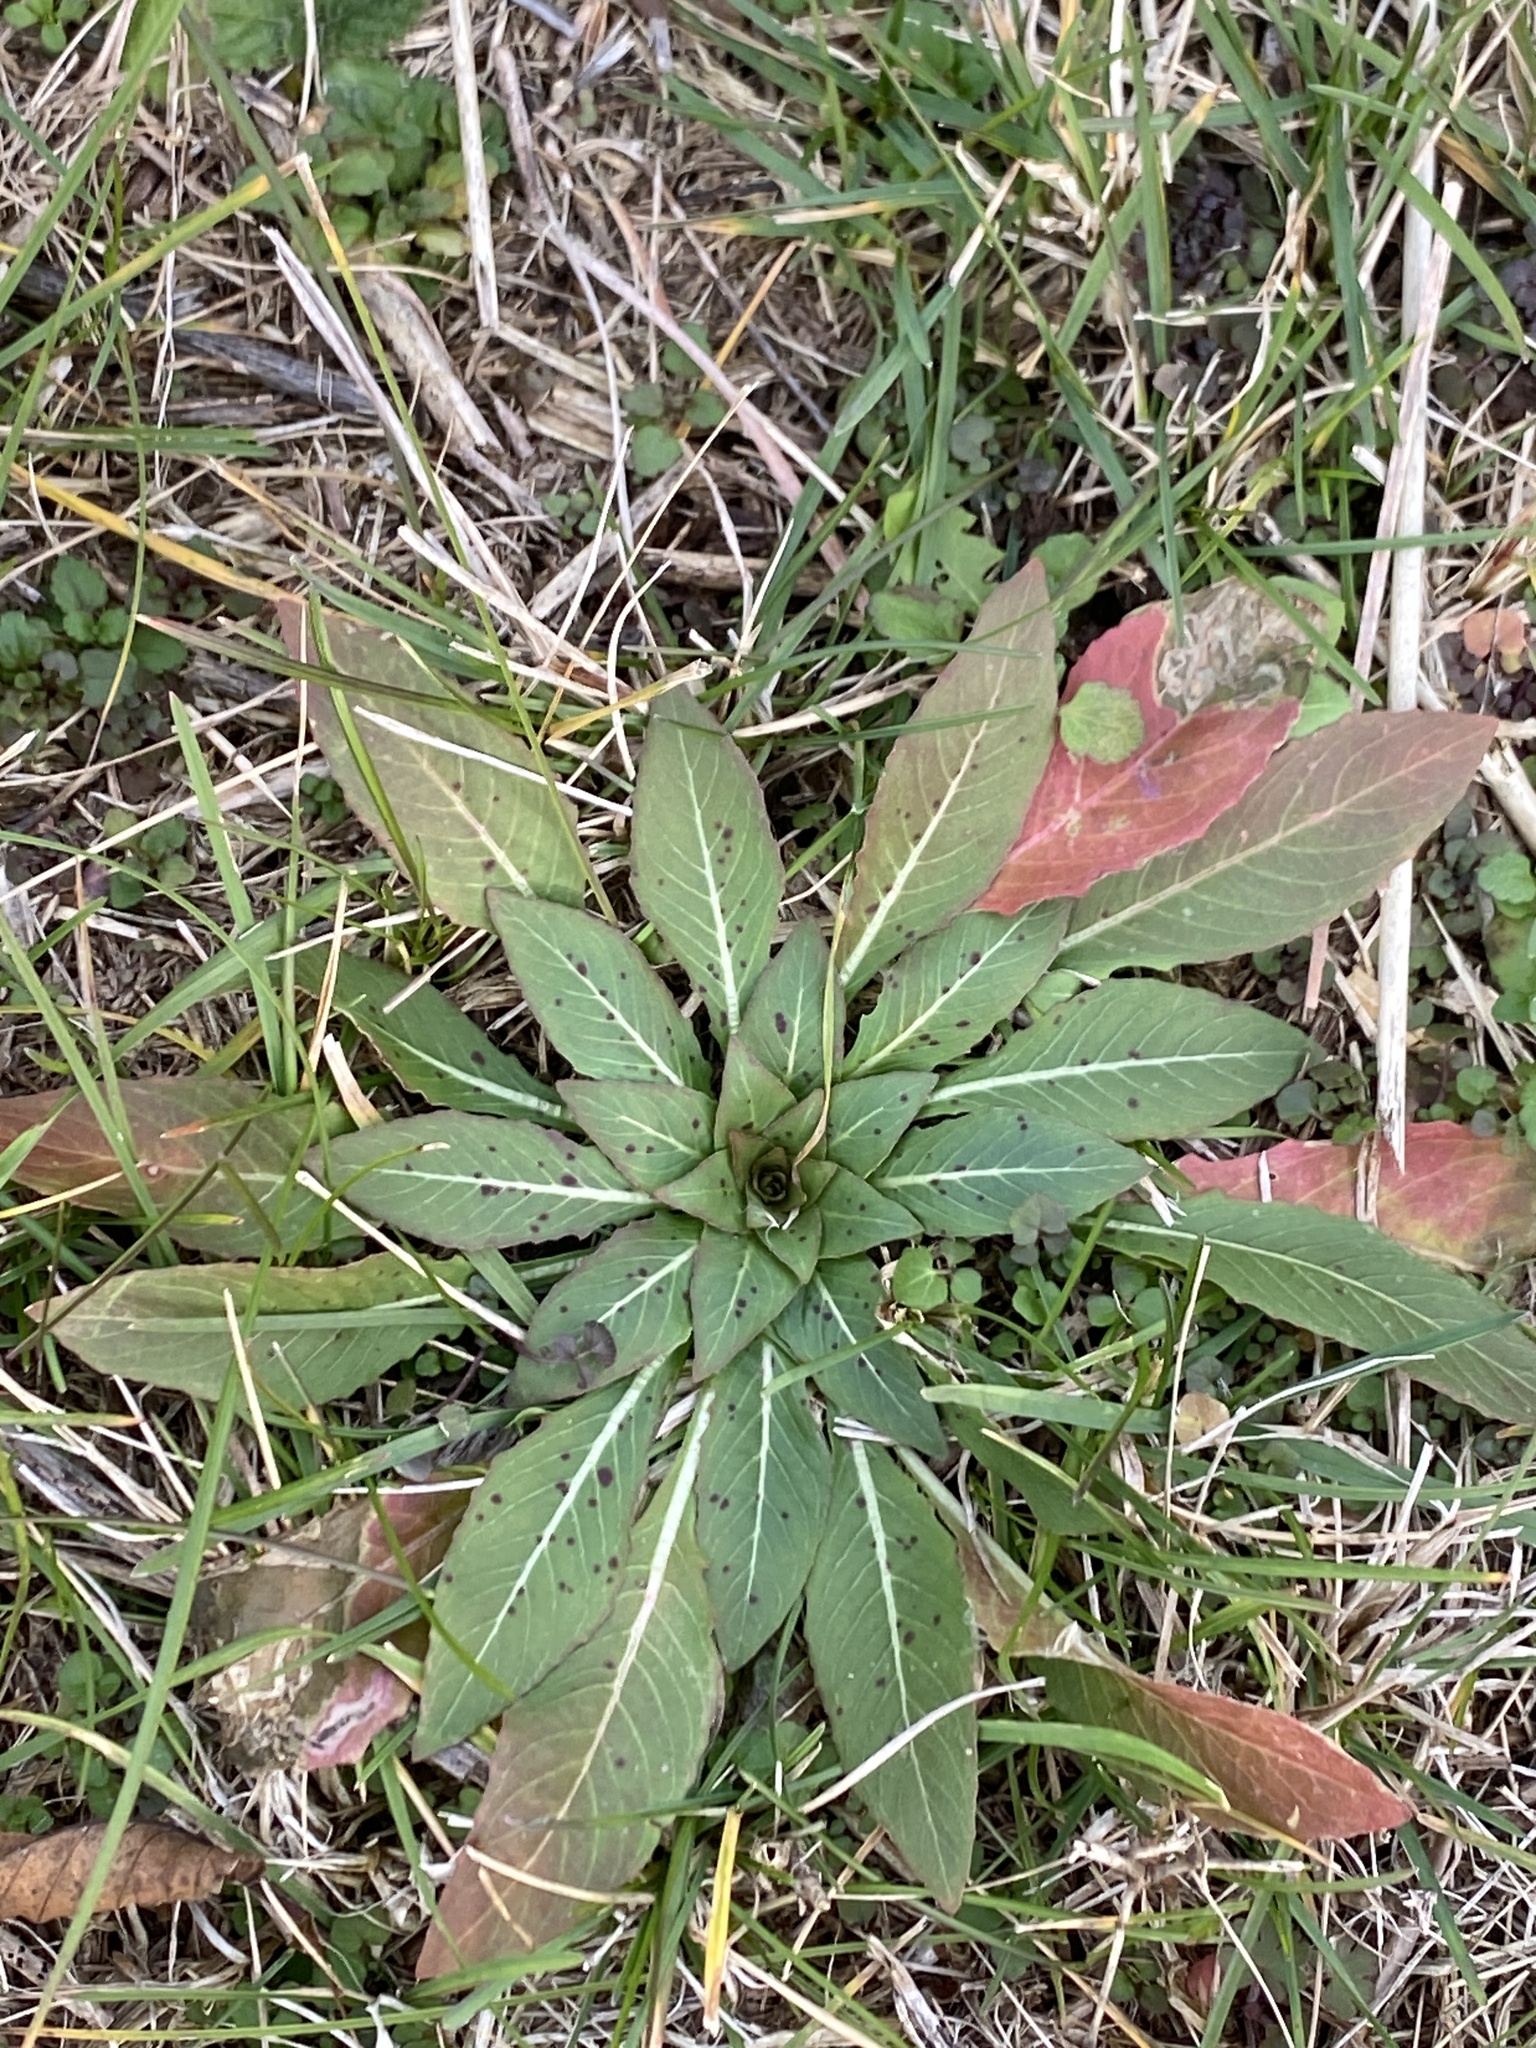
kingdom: Plantae
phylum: Tracheophyta
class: Magnoliopsida
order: Myrtales
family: Onagraceae
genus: Oenothera
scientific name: Oenothera
